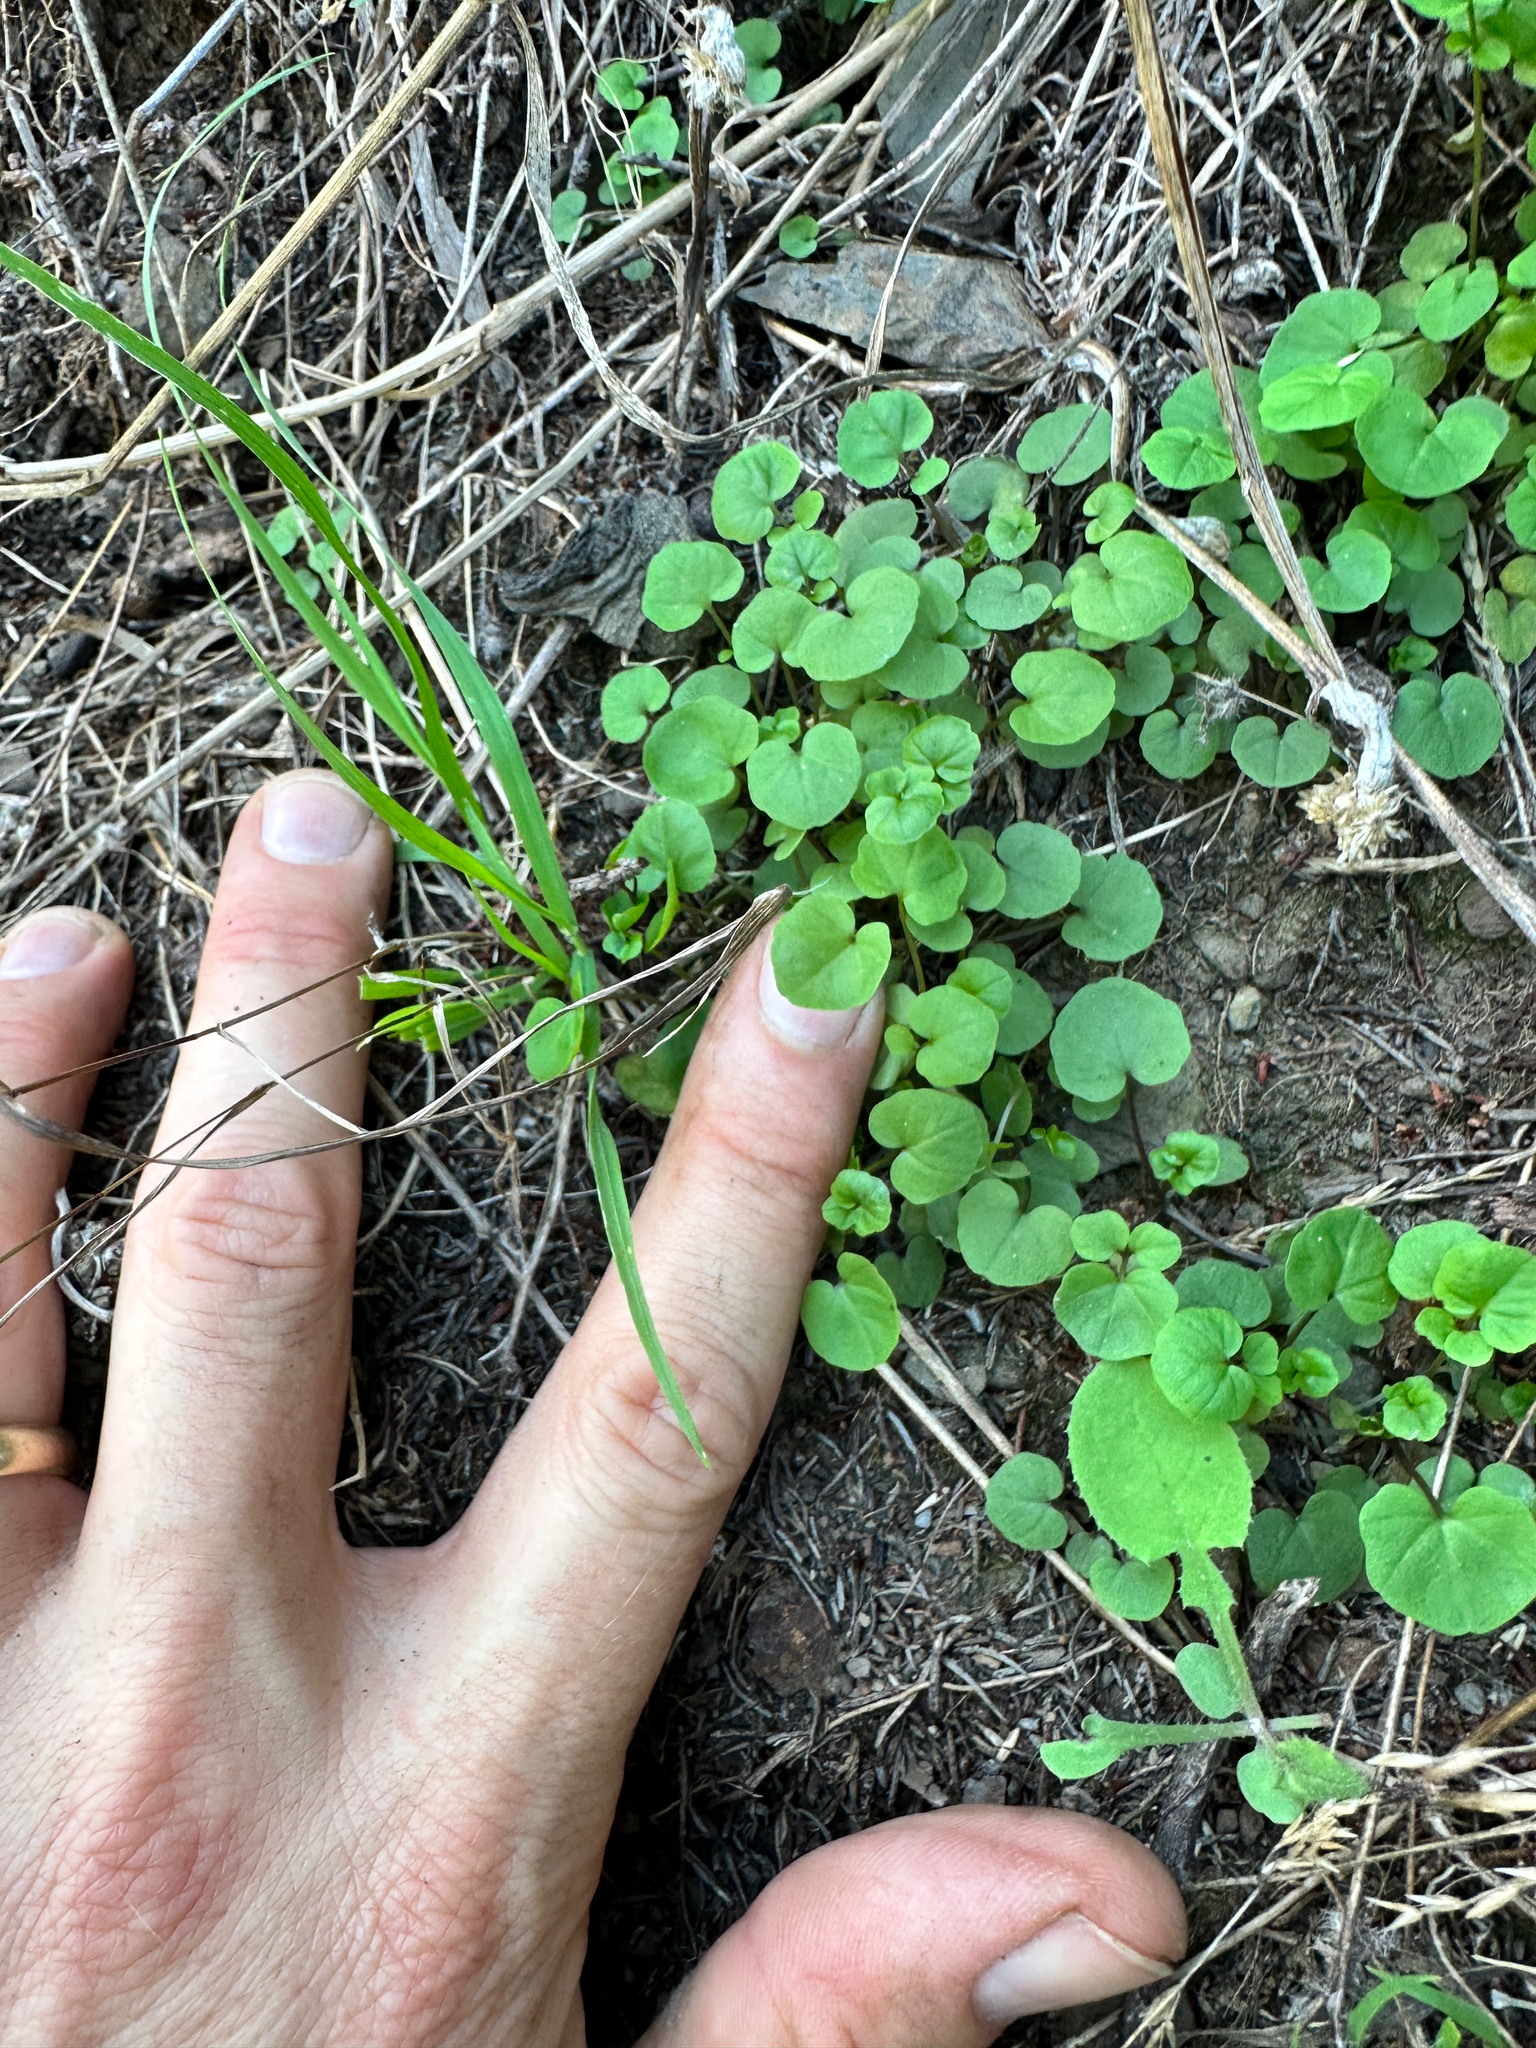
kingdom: Plantae
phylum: Tracheophyta
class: Magnoliopsida
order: Brassicales
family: Brassicaceae
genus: Cardamine
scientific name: Cardamine hirsuta
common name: Hairy bittercress
